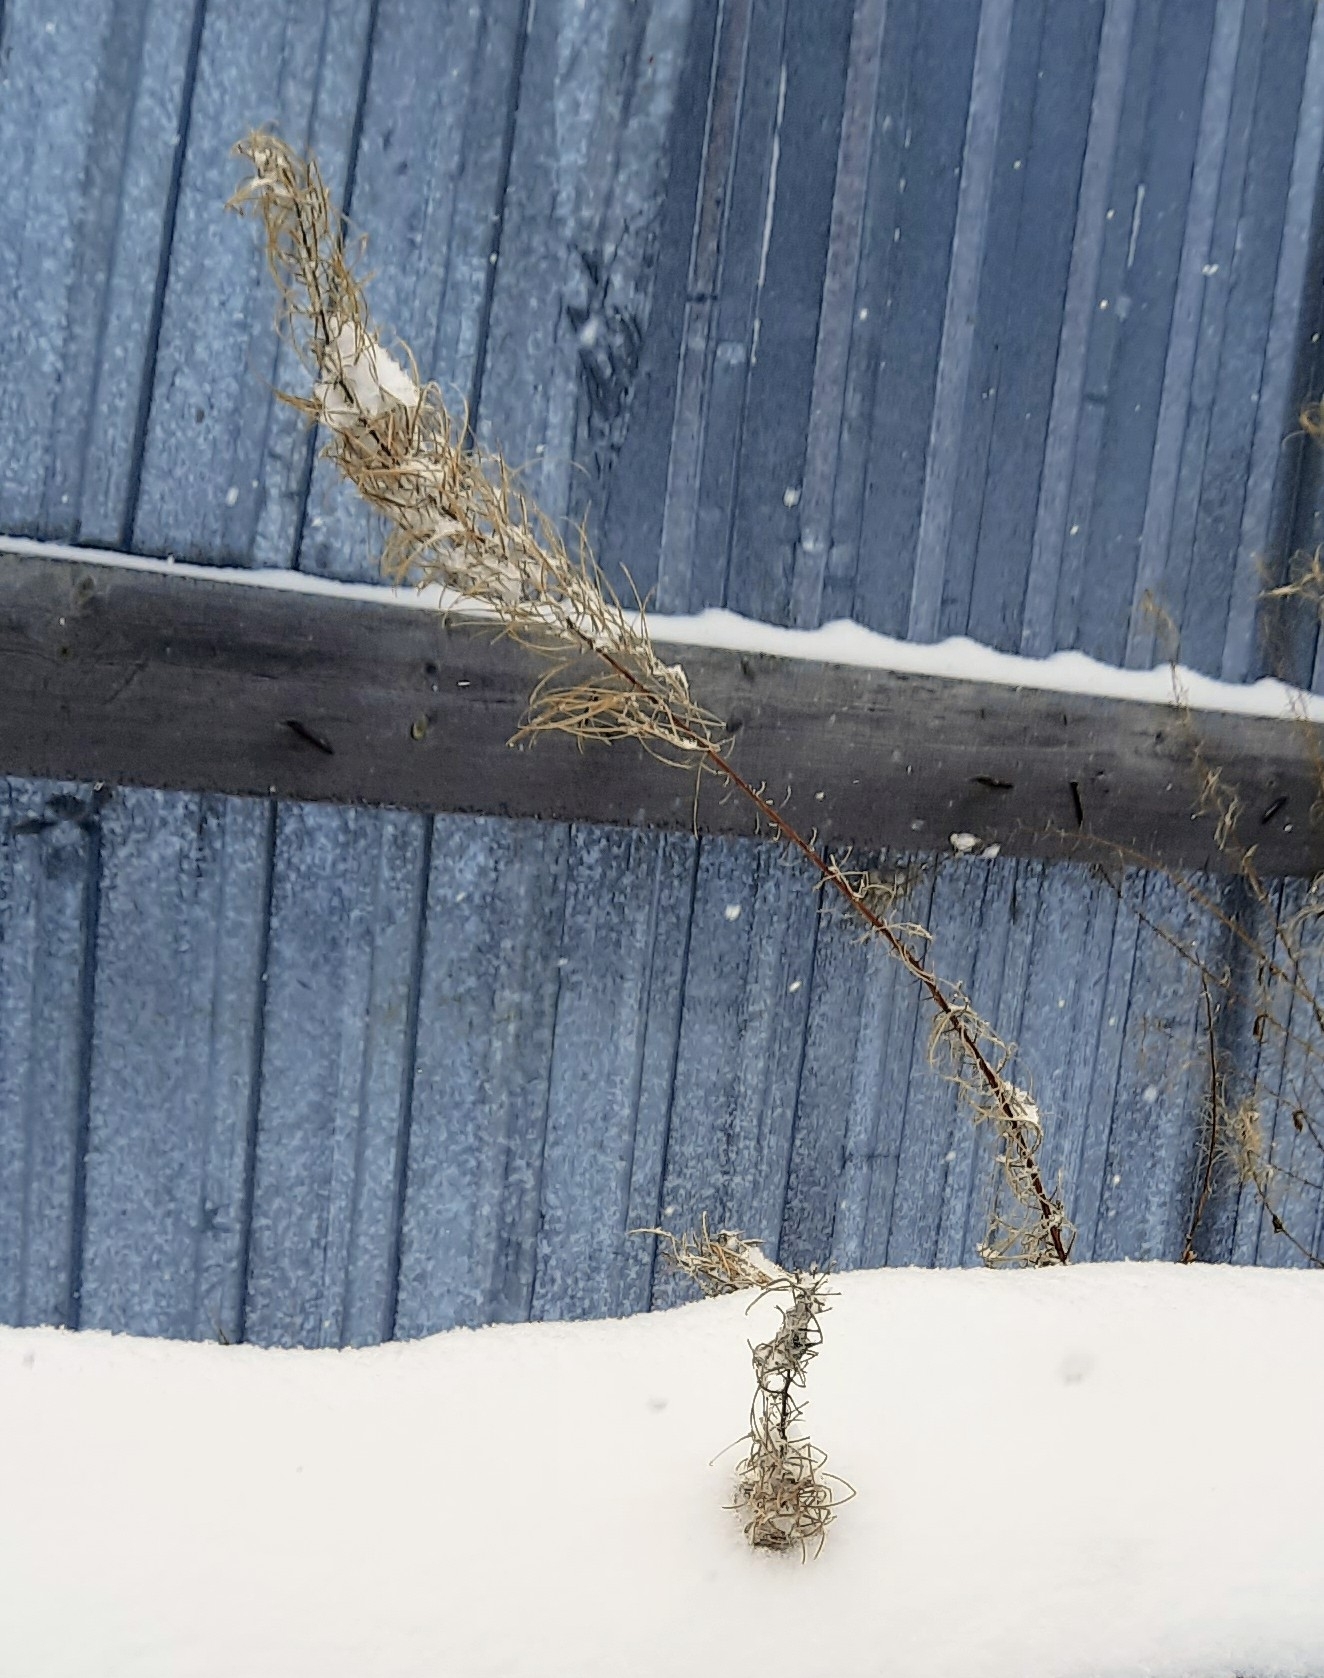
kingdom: Plantae
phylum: Tracheophyta
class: Magnoliopsida
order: Myrtales
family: Onagraceae
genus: Chamaenerion
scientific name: Chamaenerion angustifolium
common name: Fireweed
